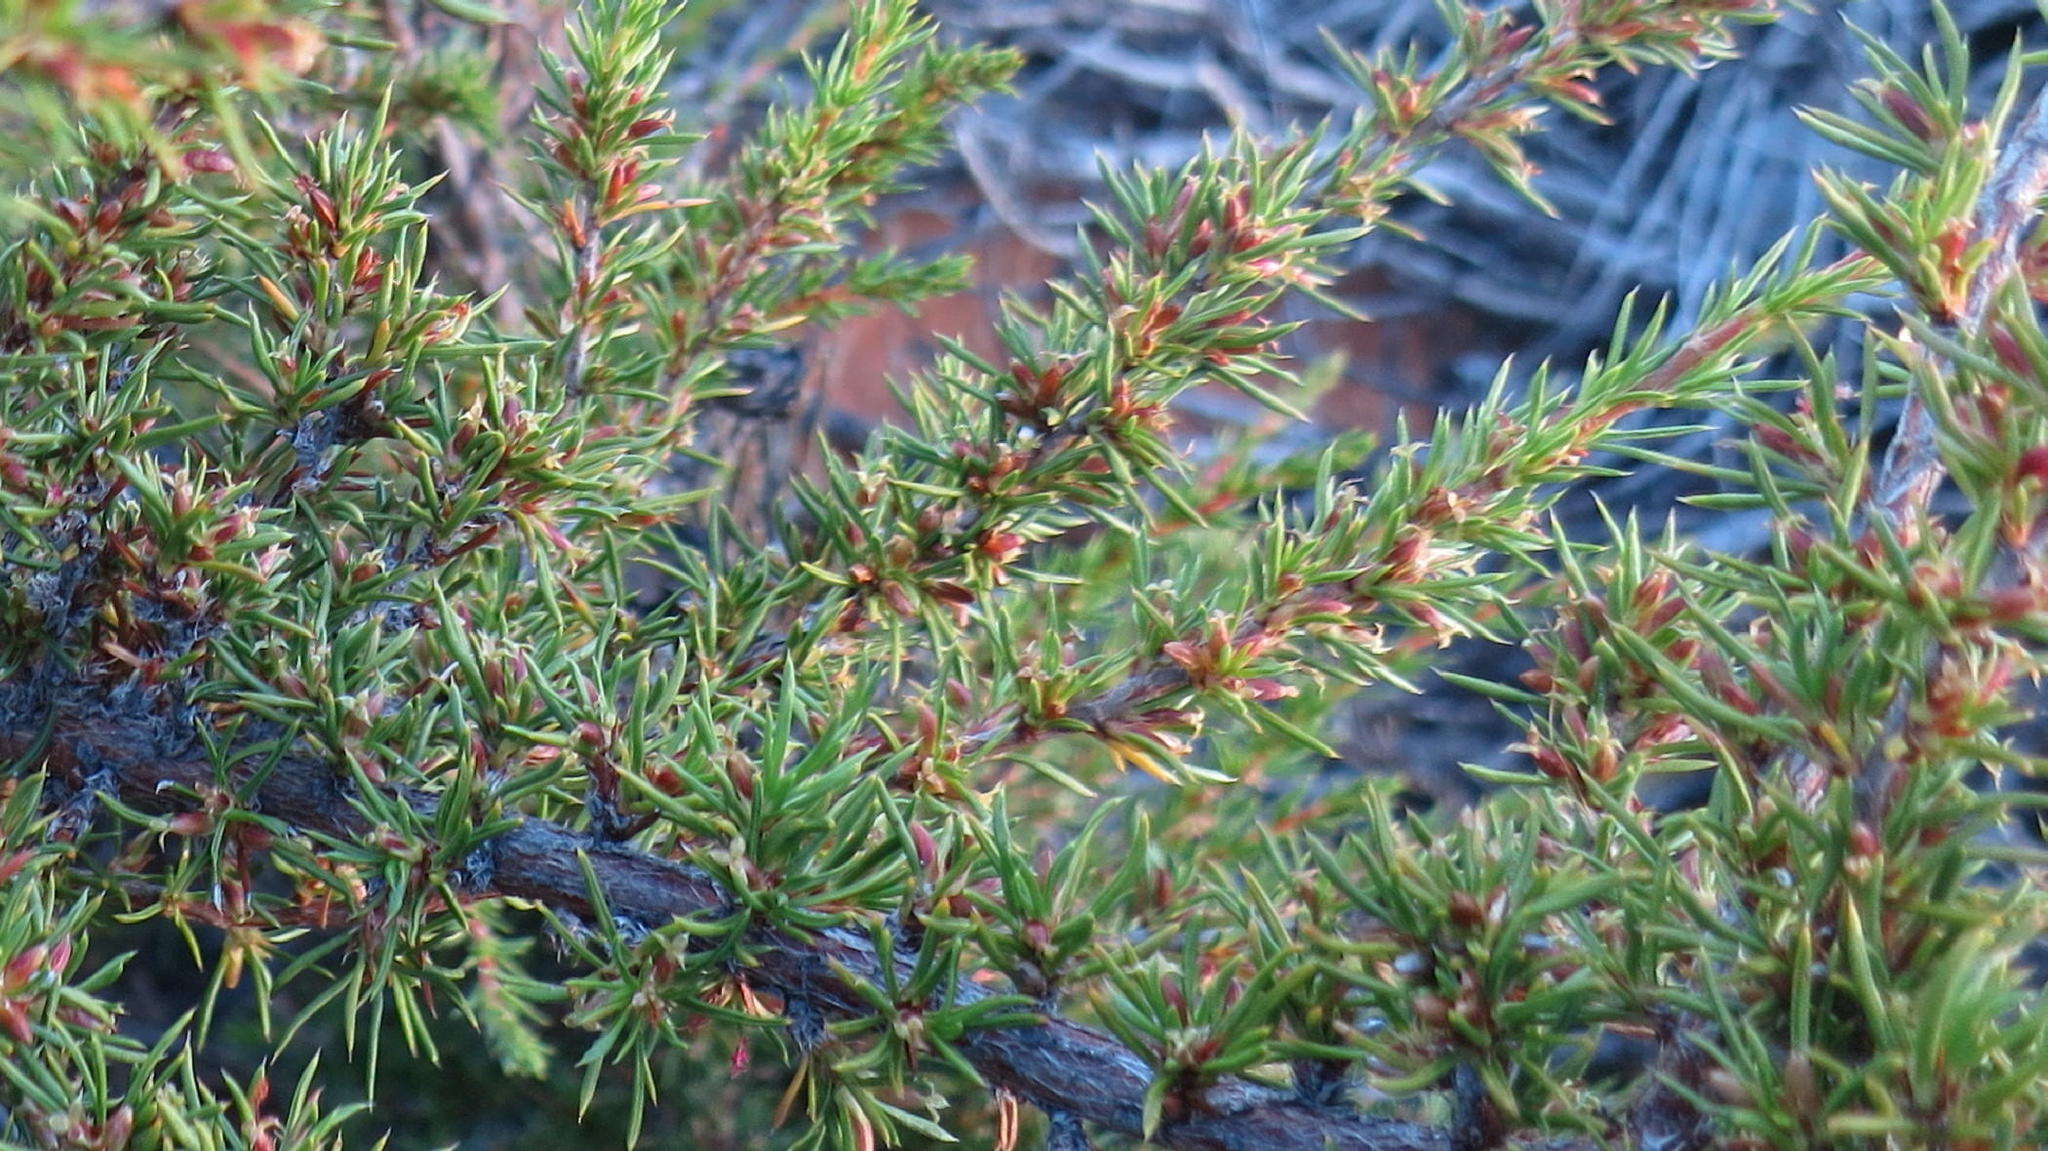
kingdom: Plantae
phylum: Tracheophyta
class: Magnoliopsida
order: Rosales
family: Rosaceae
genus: Cliffortia
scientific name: Cliffortia neglecta
